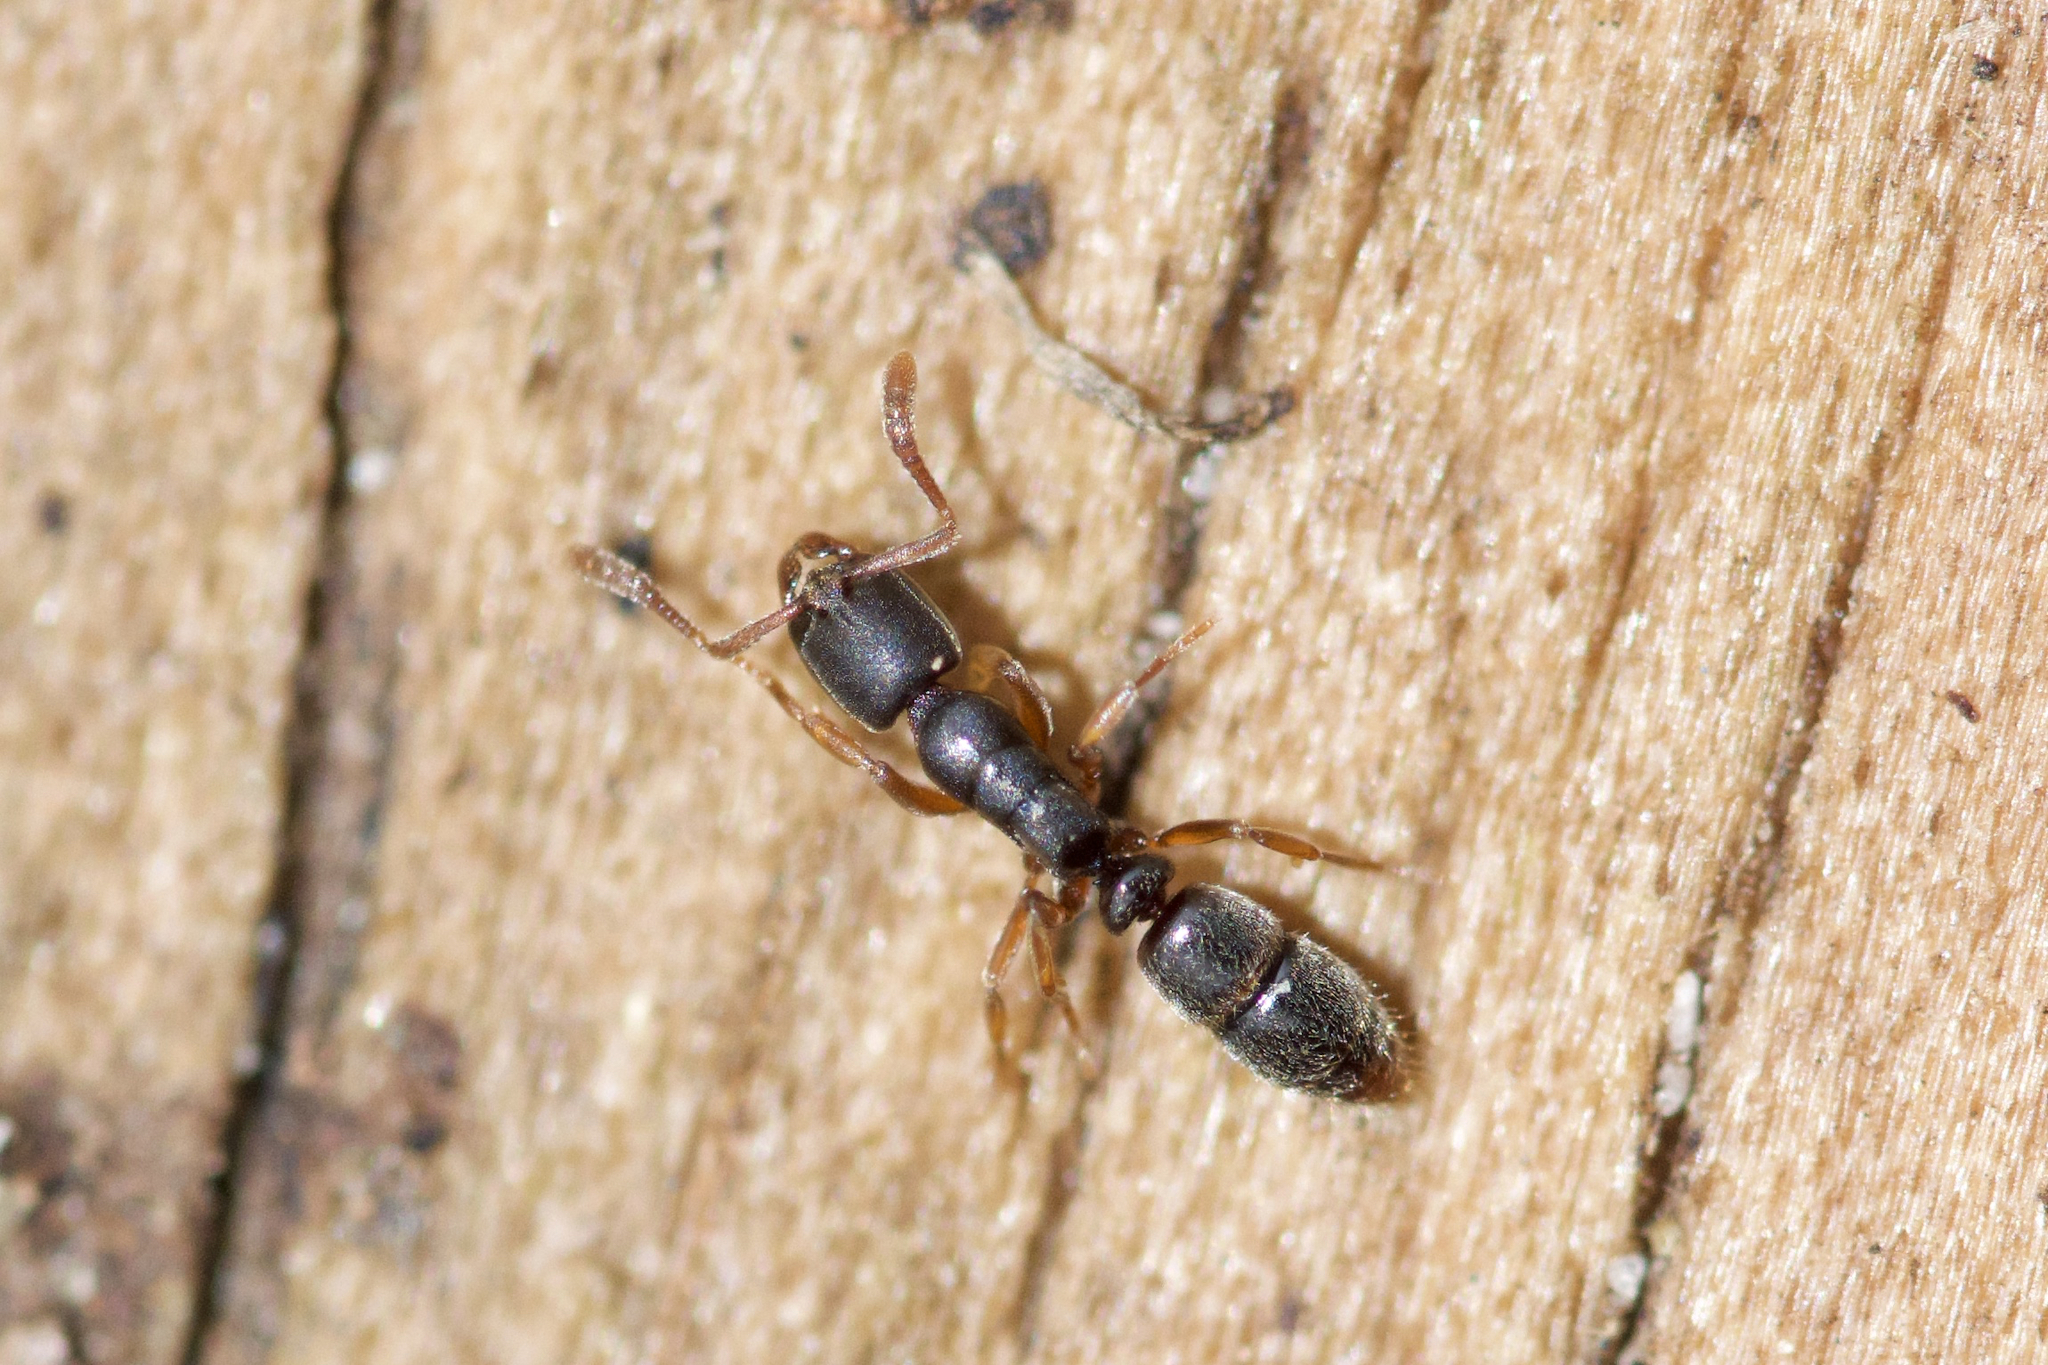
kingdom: Animalia
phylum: Arthropoda
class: Insecta
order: Hymenoptera
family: Formicidae
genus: Ponera
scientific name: Ponera pennsylvanica
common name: Pennsylvania ponera
